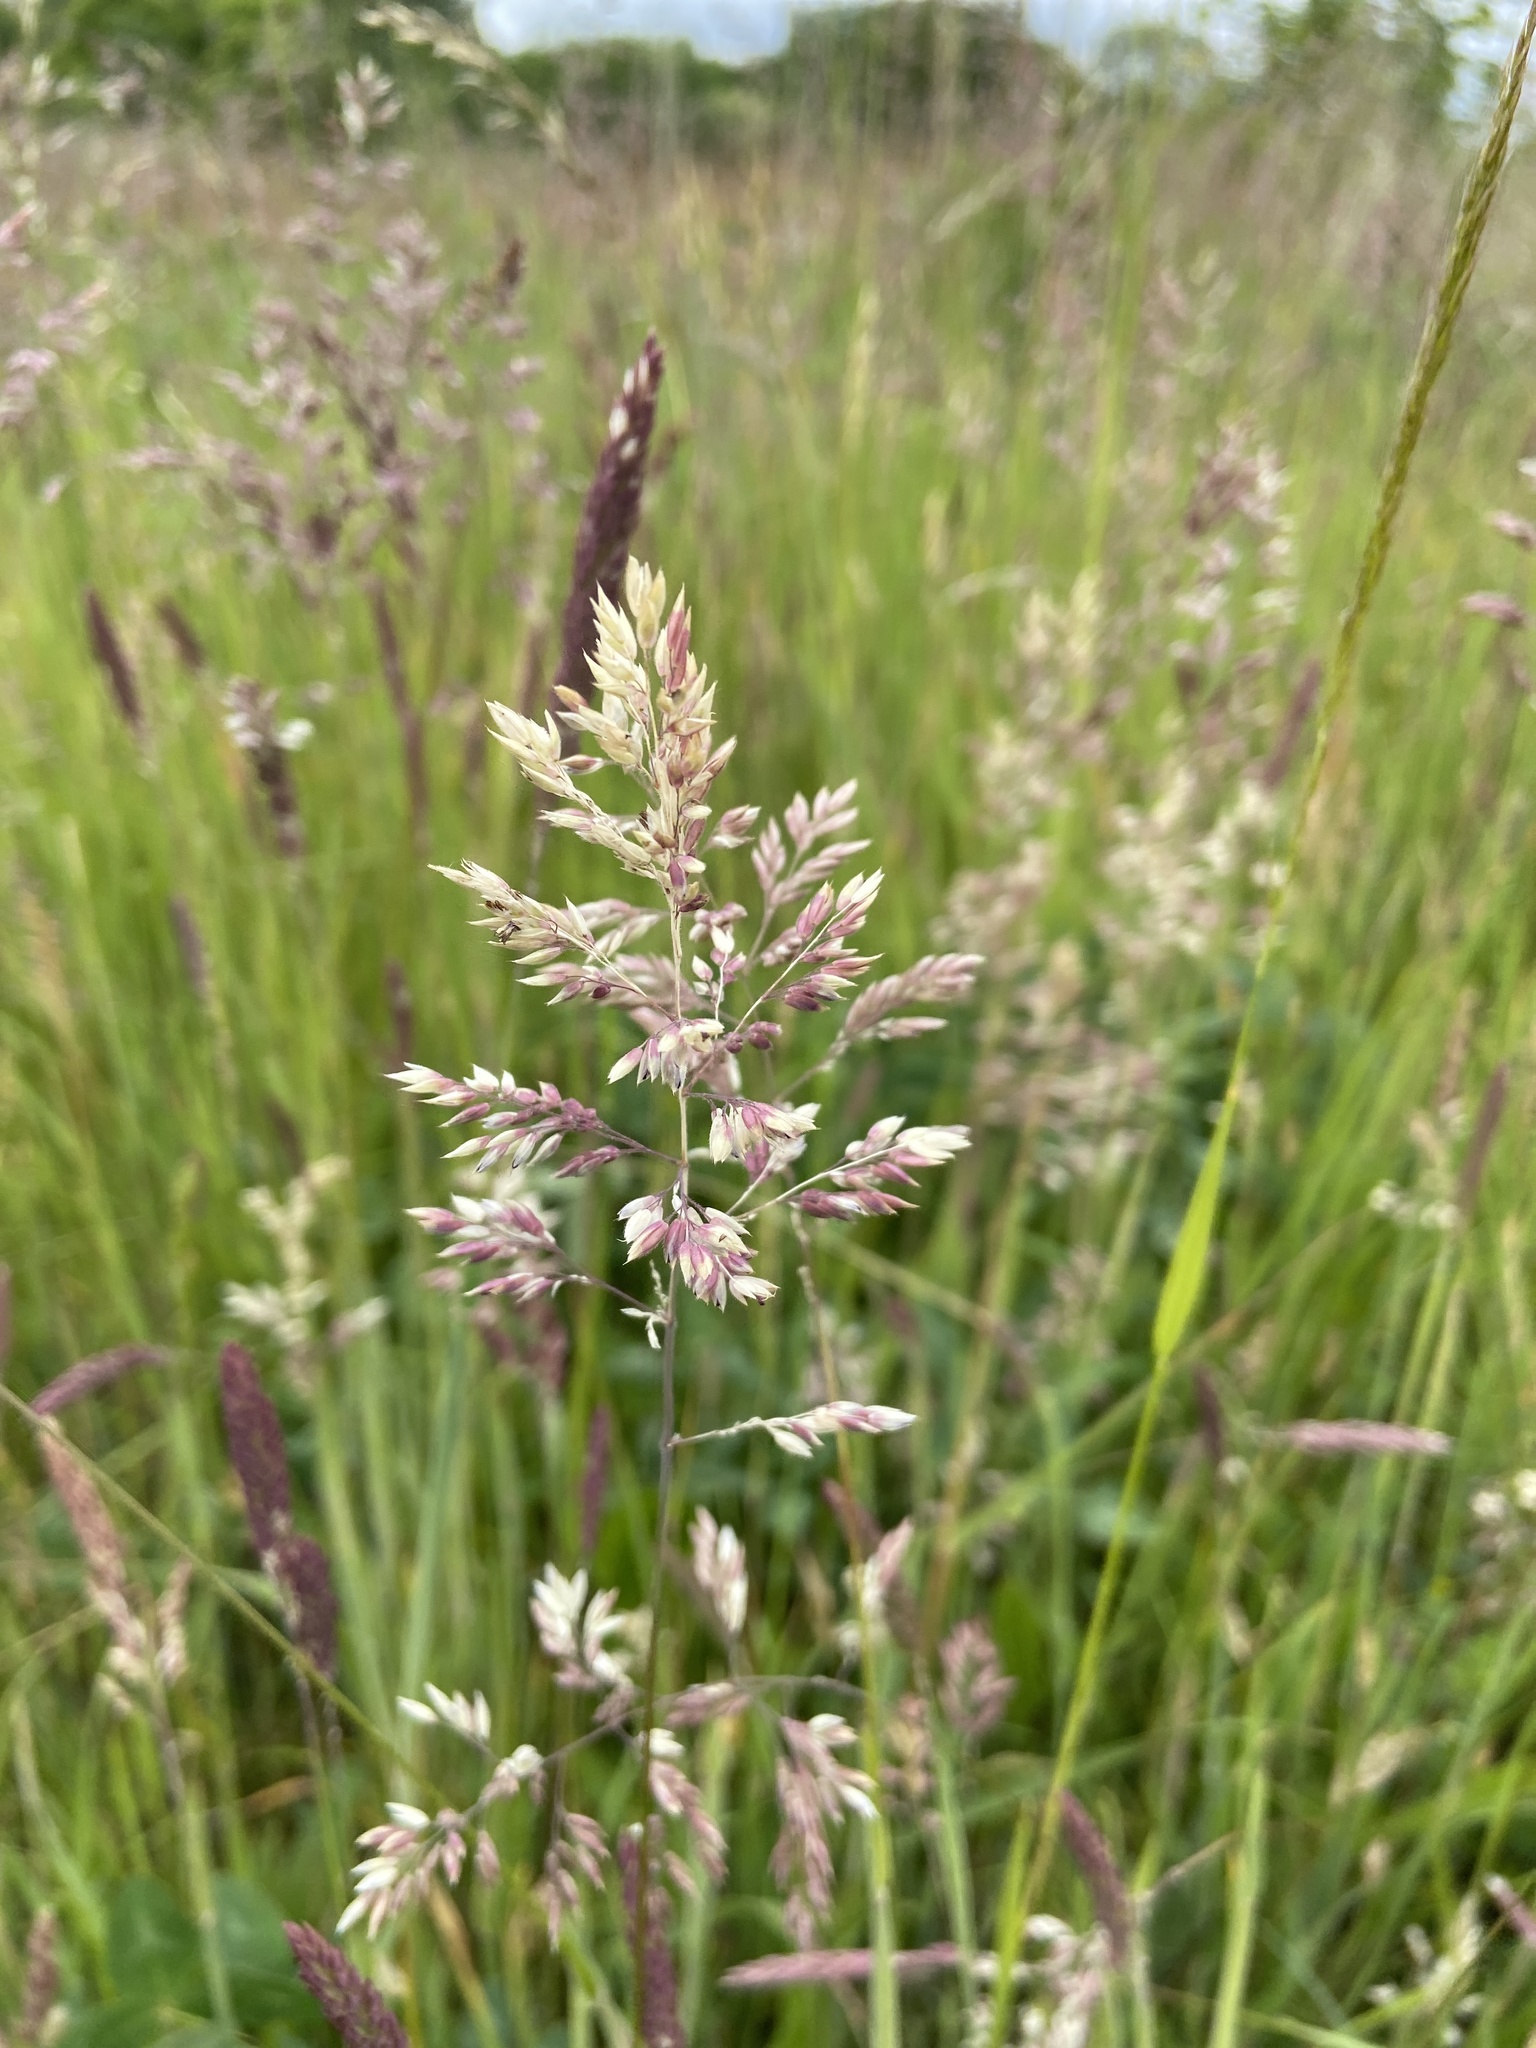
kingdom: Plantae
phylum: Tracheophyta
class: Liliopsida
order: Poales
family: Poaceae
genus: Holcus
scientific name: Holcus lanatus
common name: Yorkshire-fog
